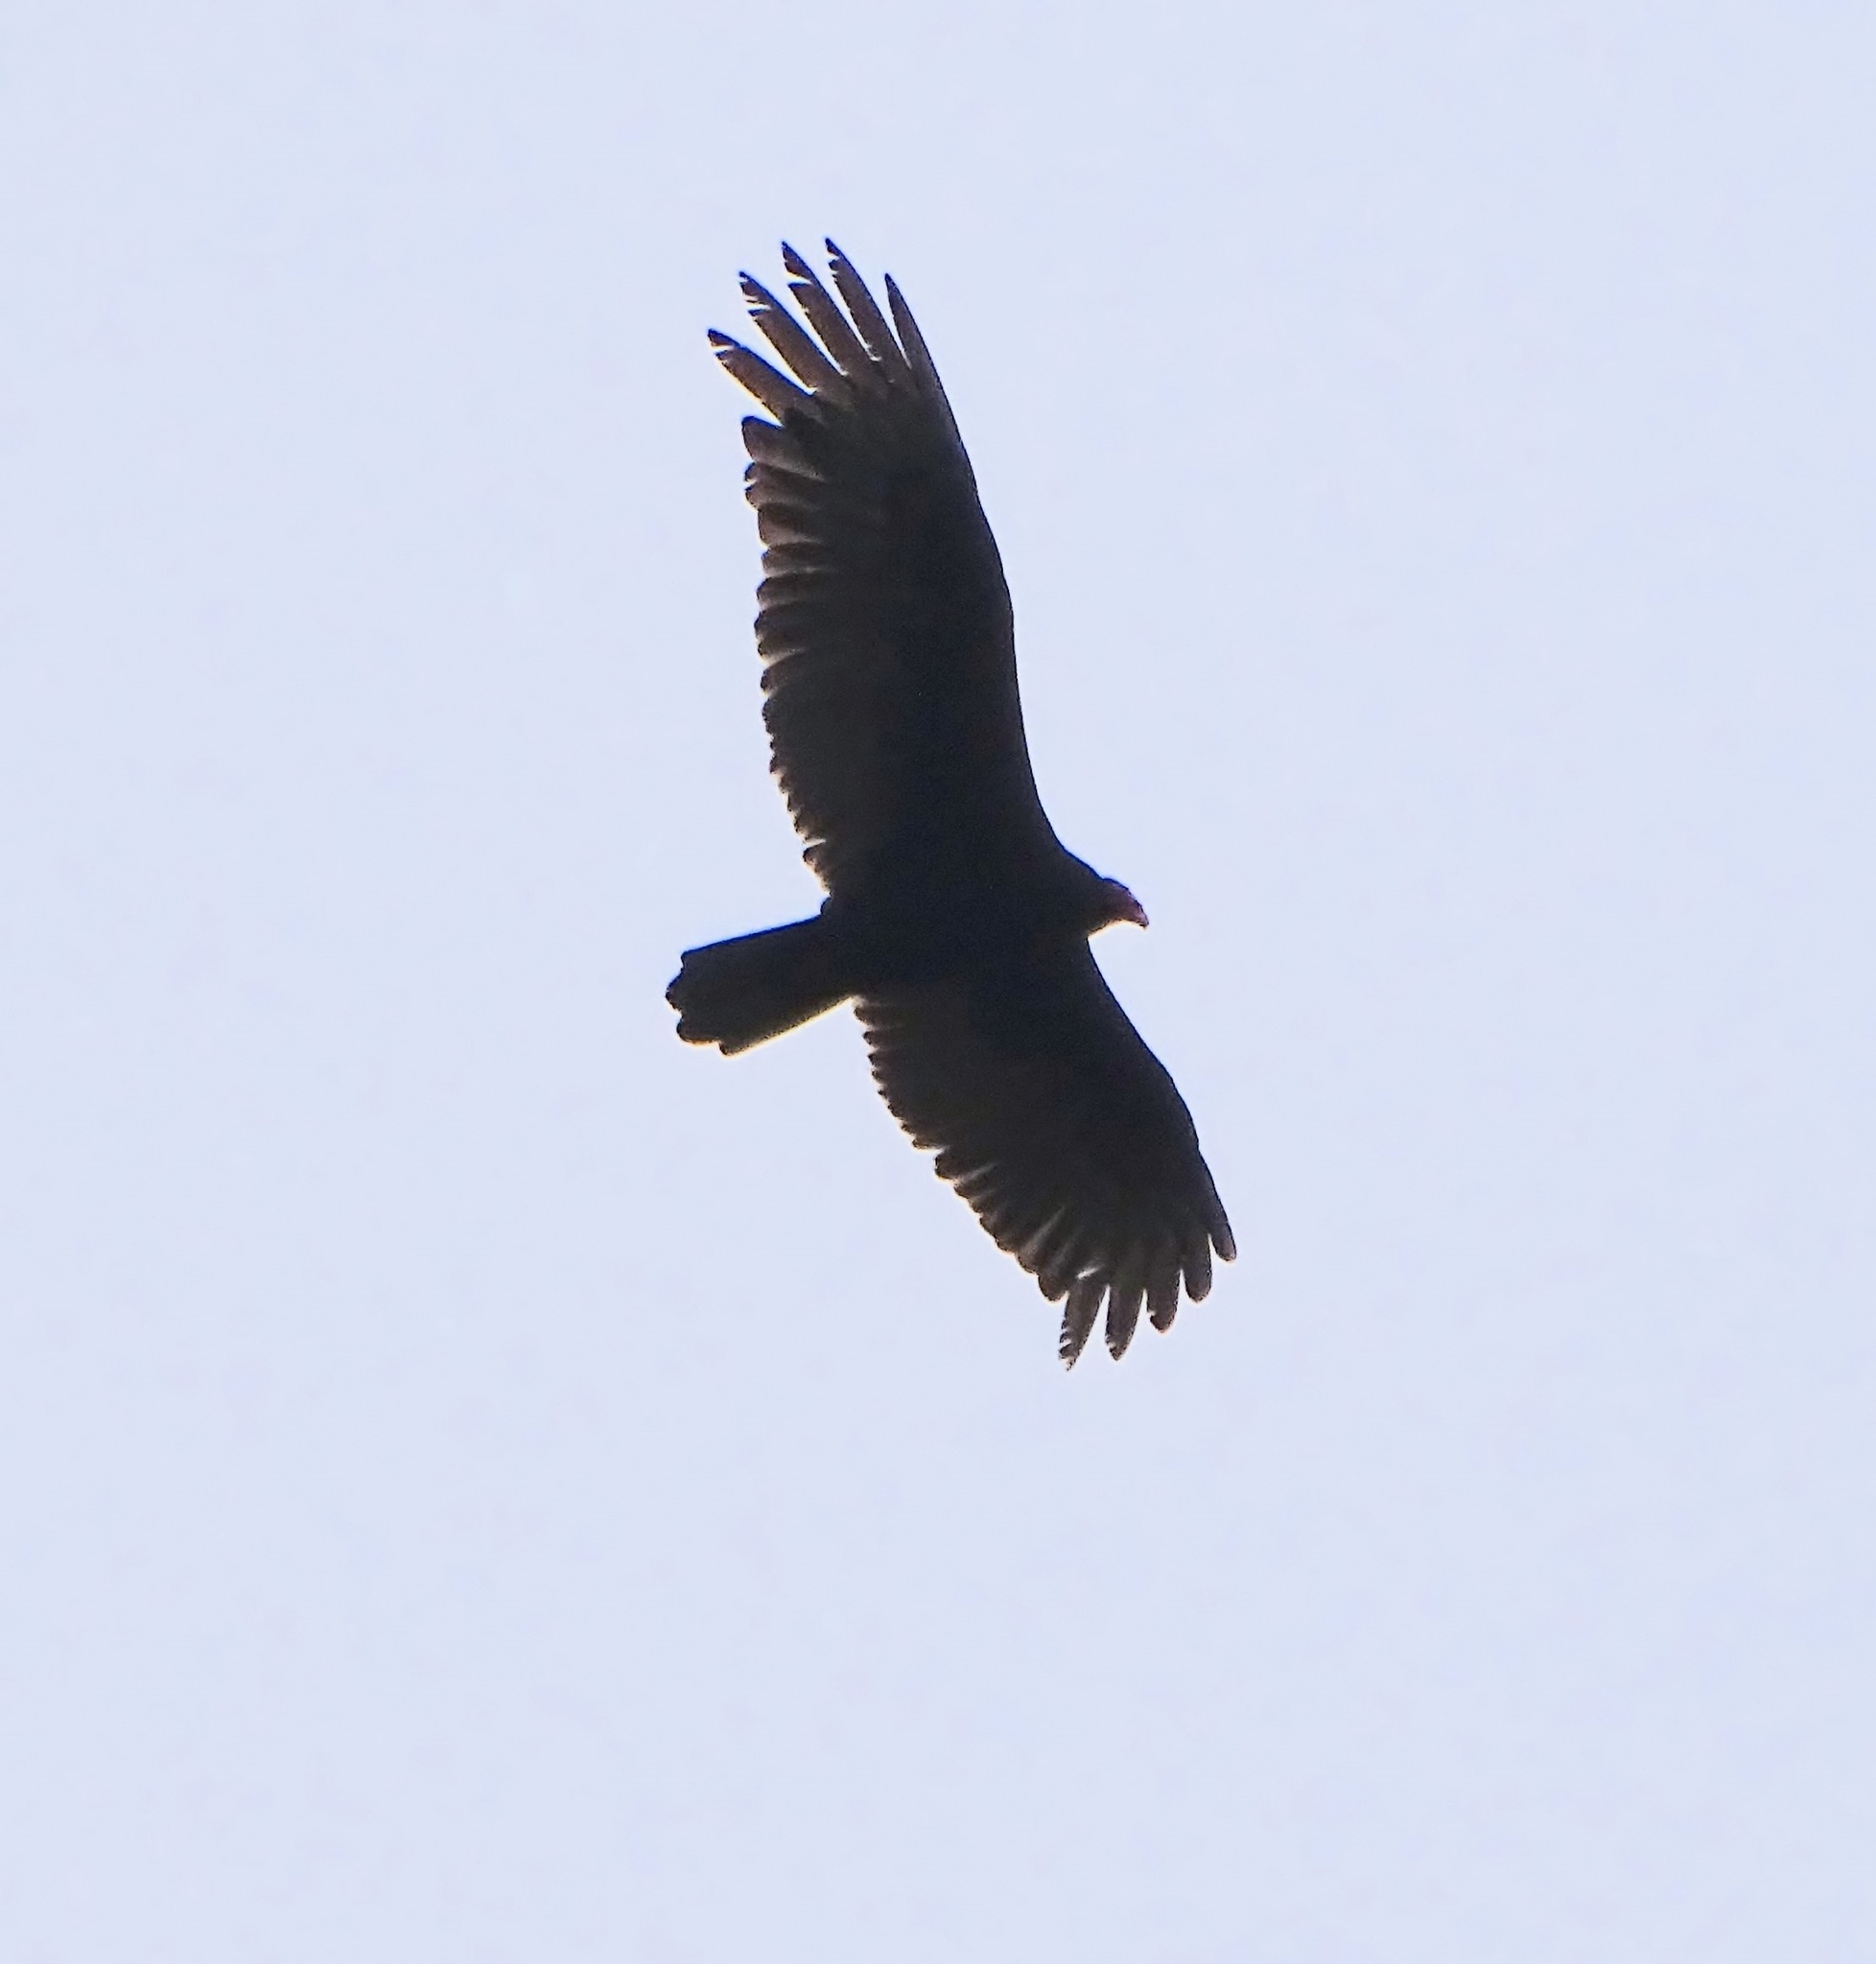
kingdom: Animalia
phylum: Chordata
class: Aves
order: Accipitriformes
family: Cathartidae
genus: Cathartes
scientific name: Cathartes aura
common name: Turkey vulture
